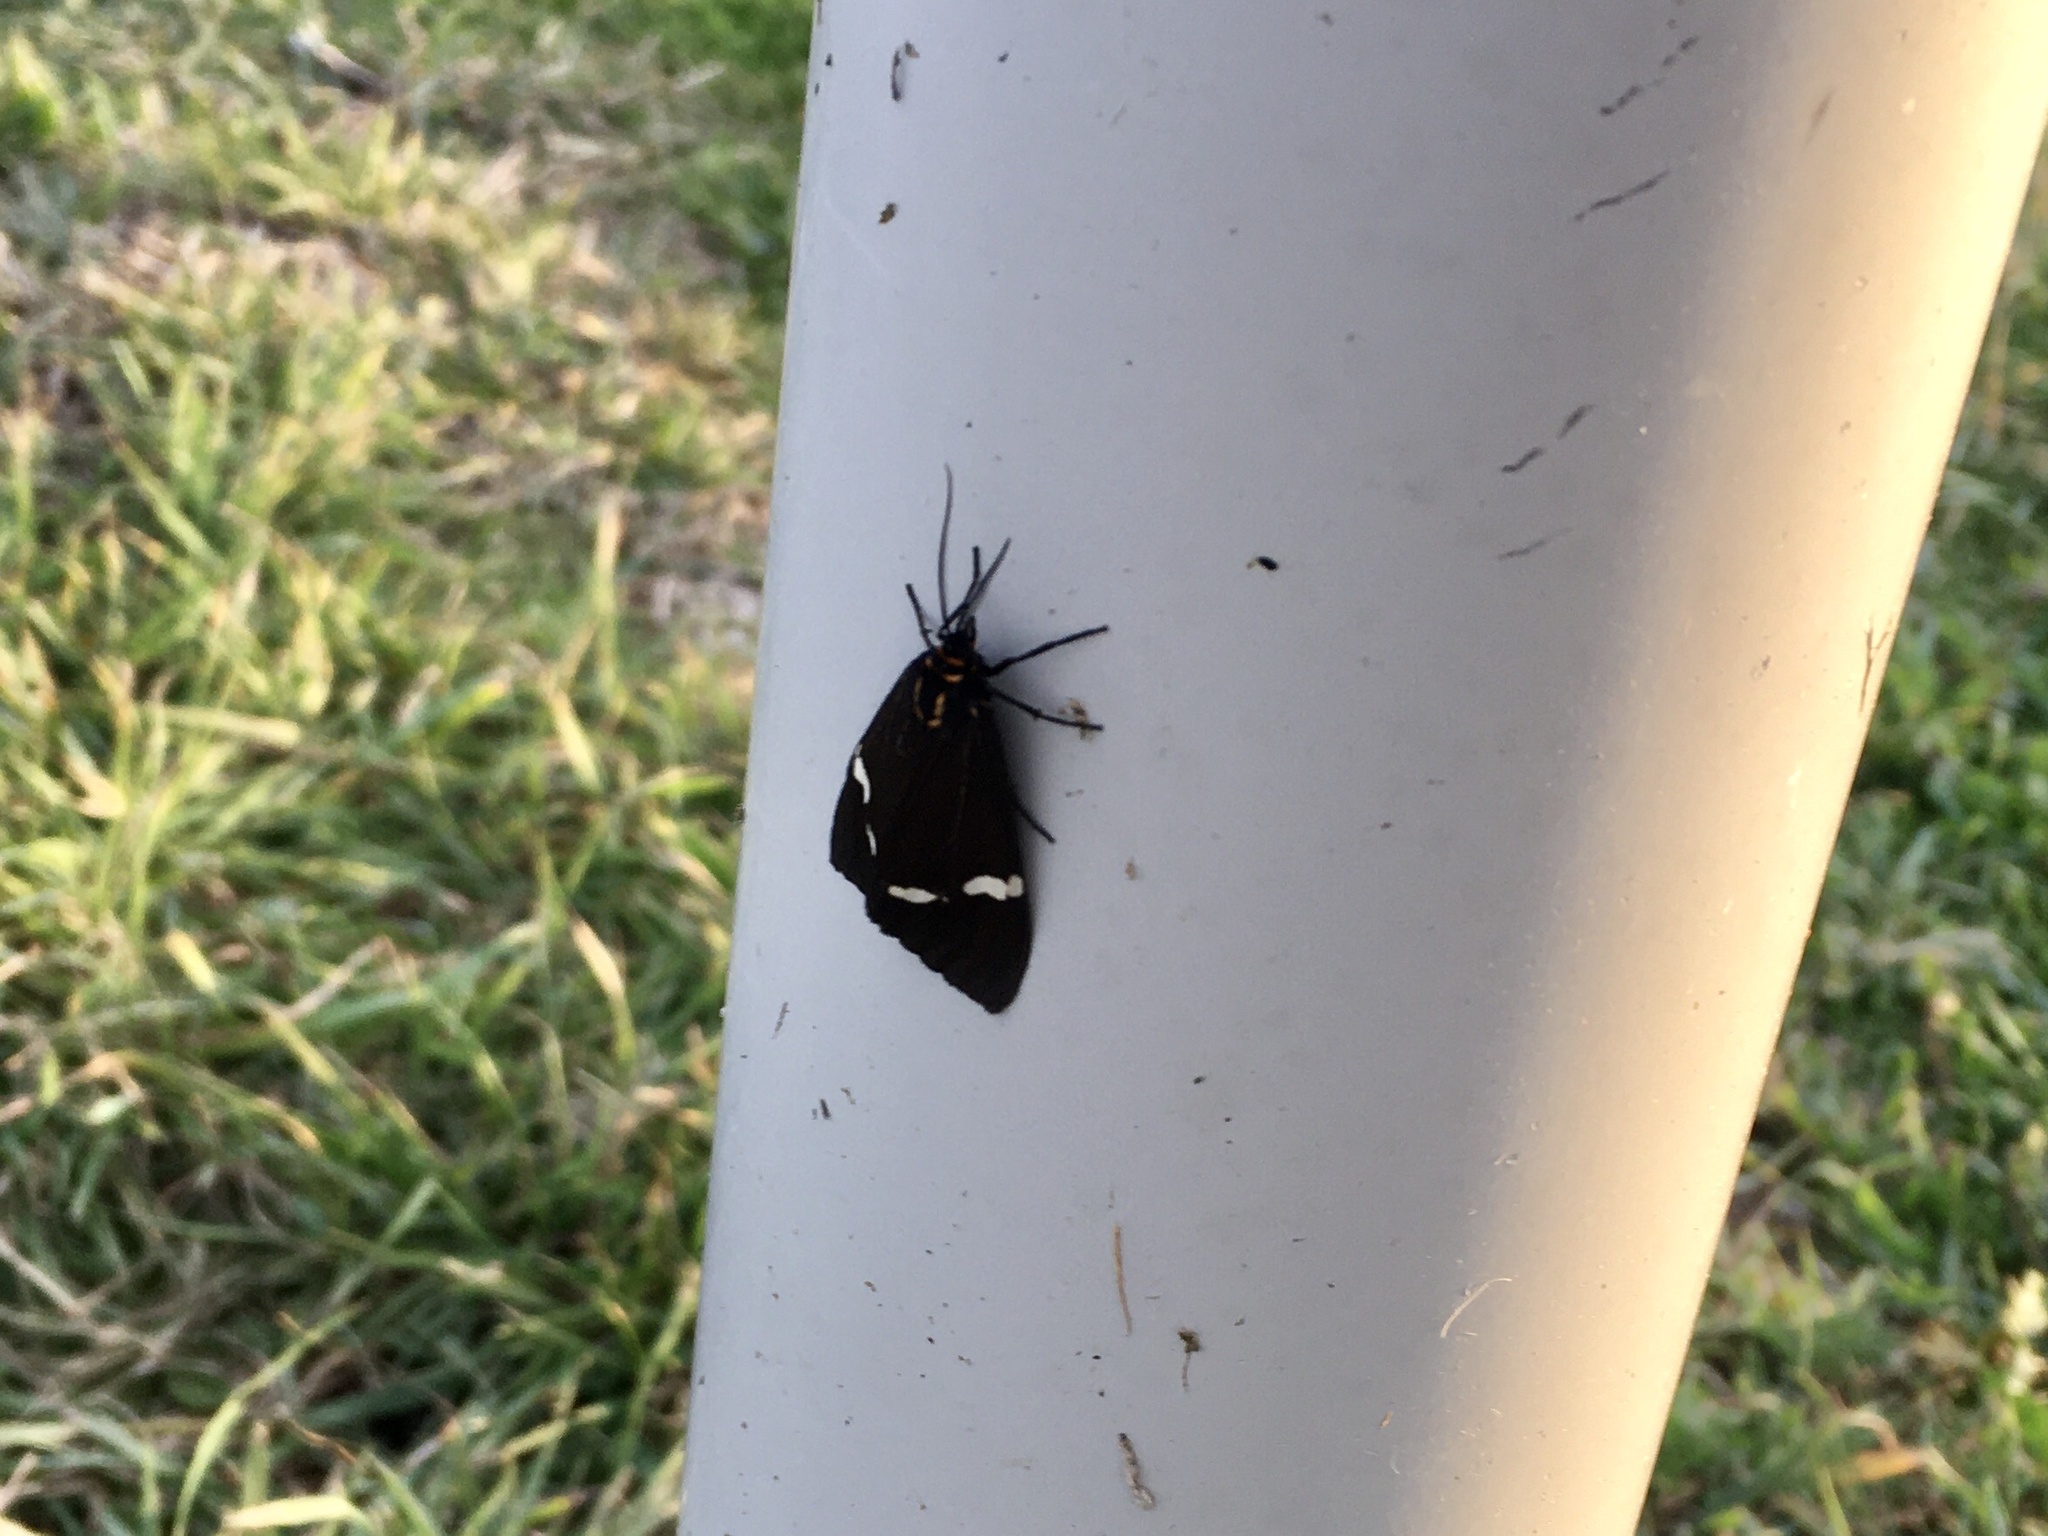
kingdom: Animalia
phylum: Arthropoda
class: Insecta
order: Lepidoptera
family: Erebidae
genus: Nyctemera
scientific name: Nyctemera annulatum
